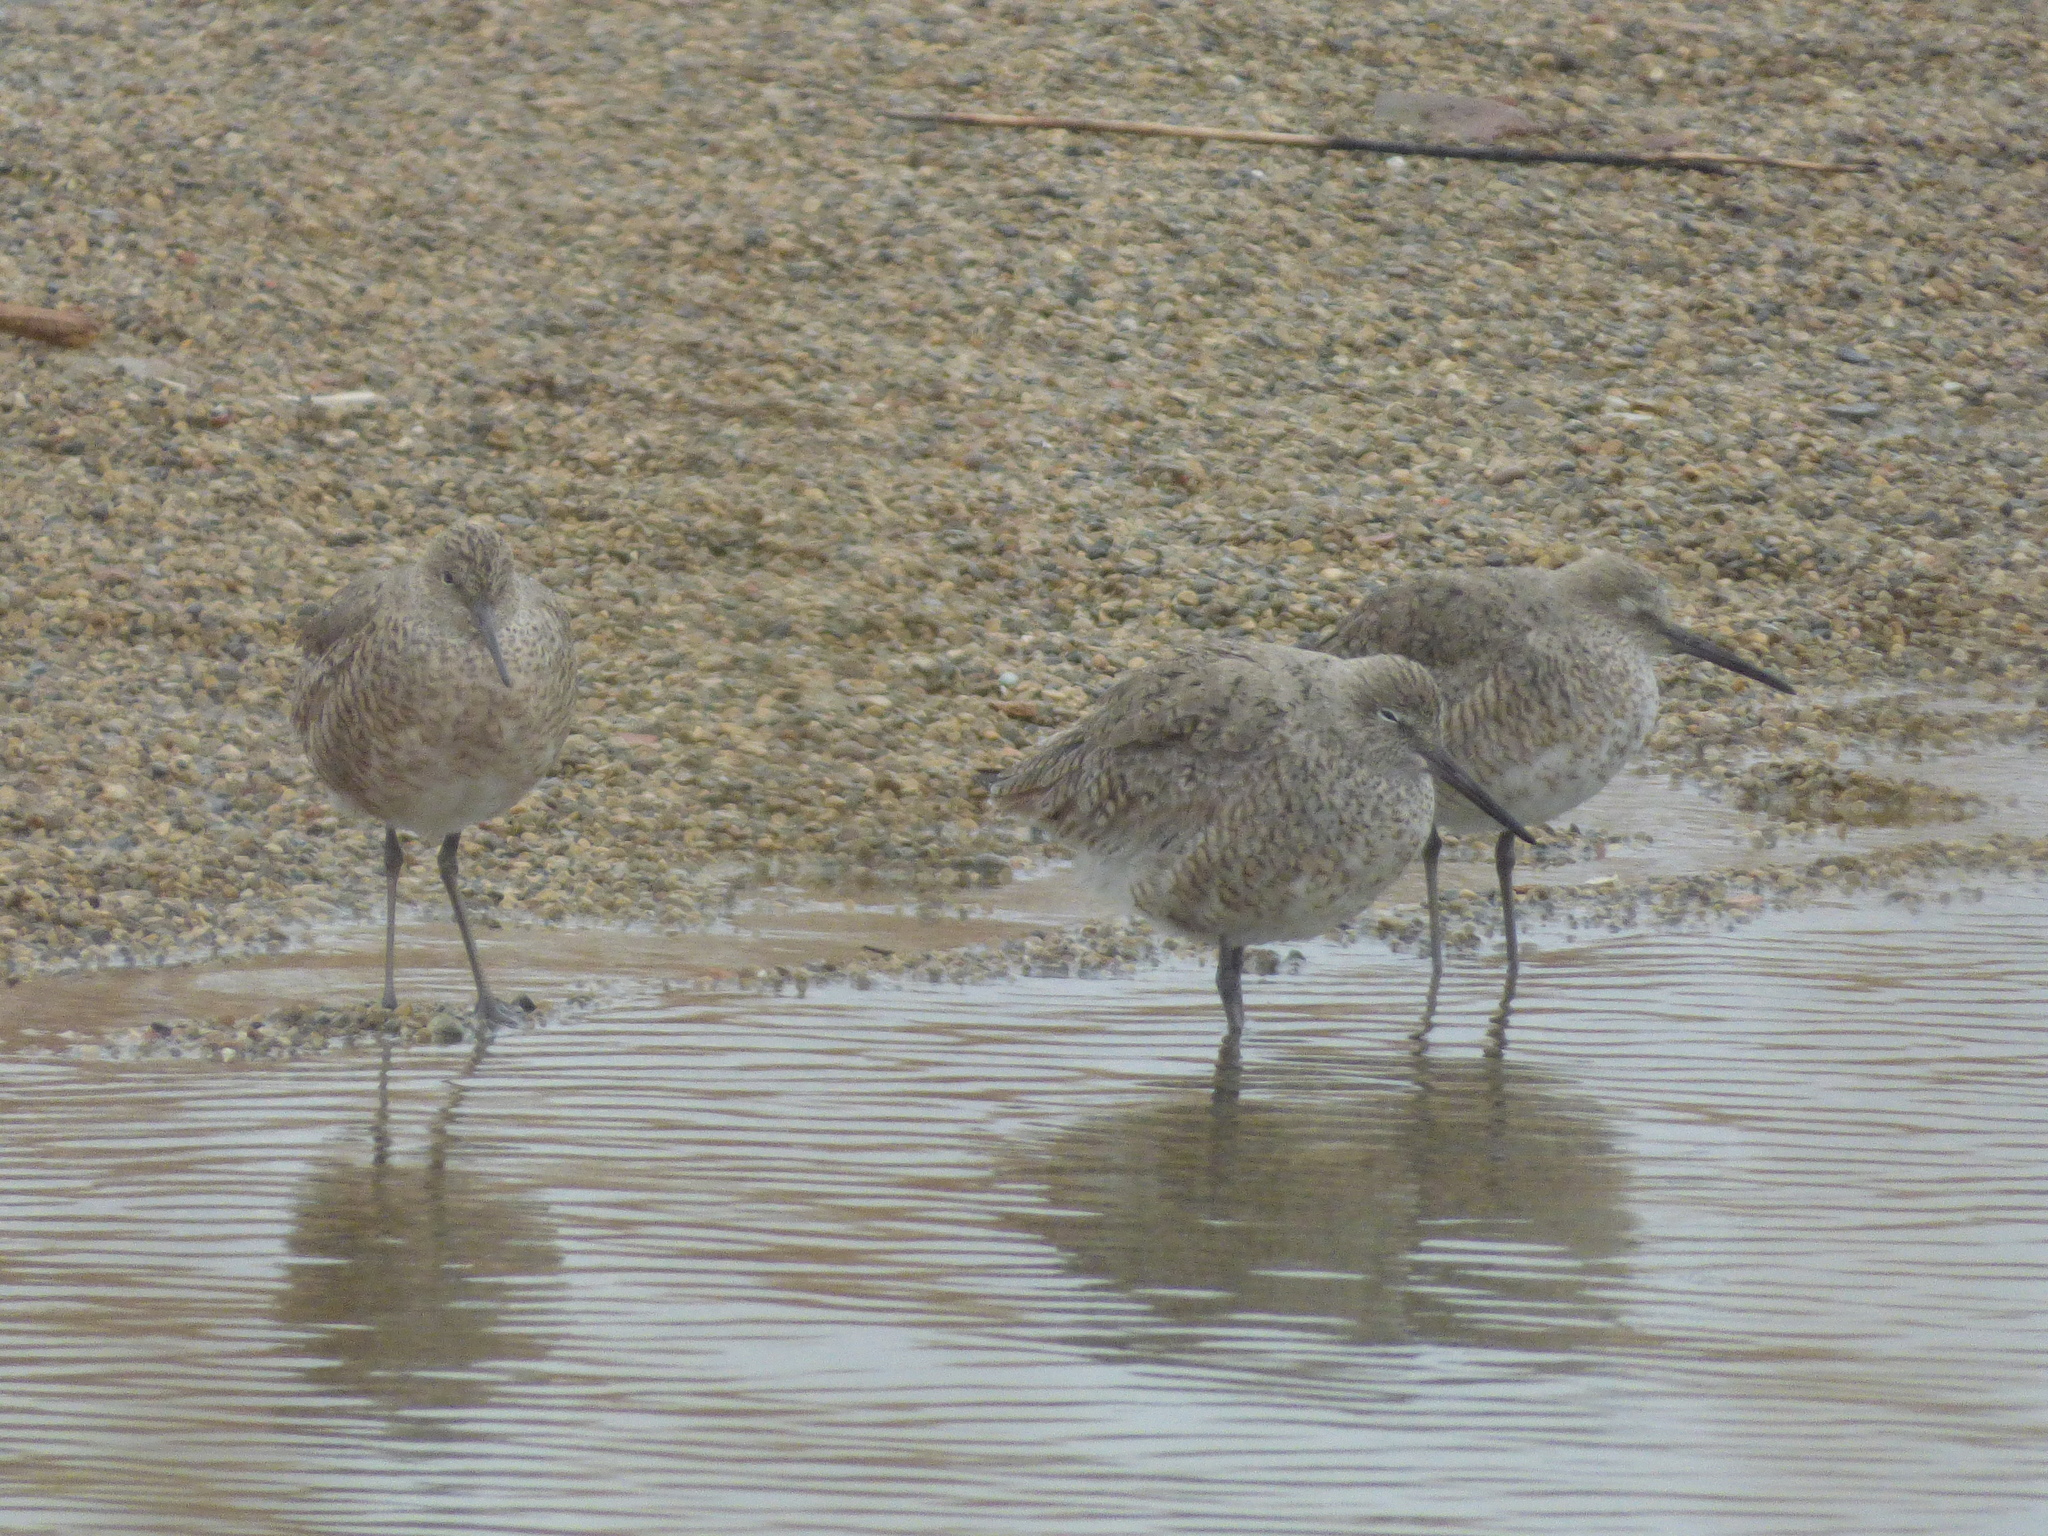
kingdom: Animalia
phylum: Chordata
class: Aves
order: Charadriiformes
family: Scolopacidae
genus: Tringa
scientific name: Tringa semipalmata
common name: Willet
